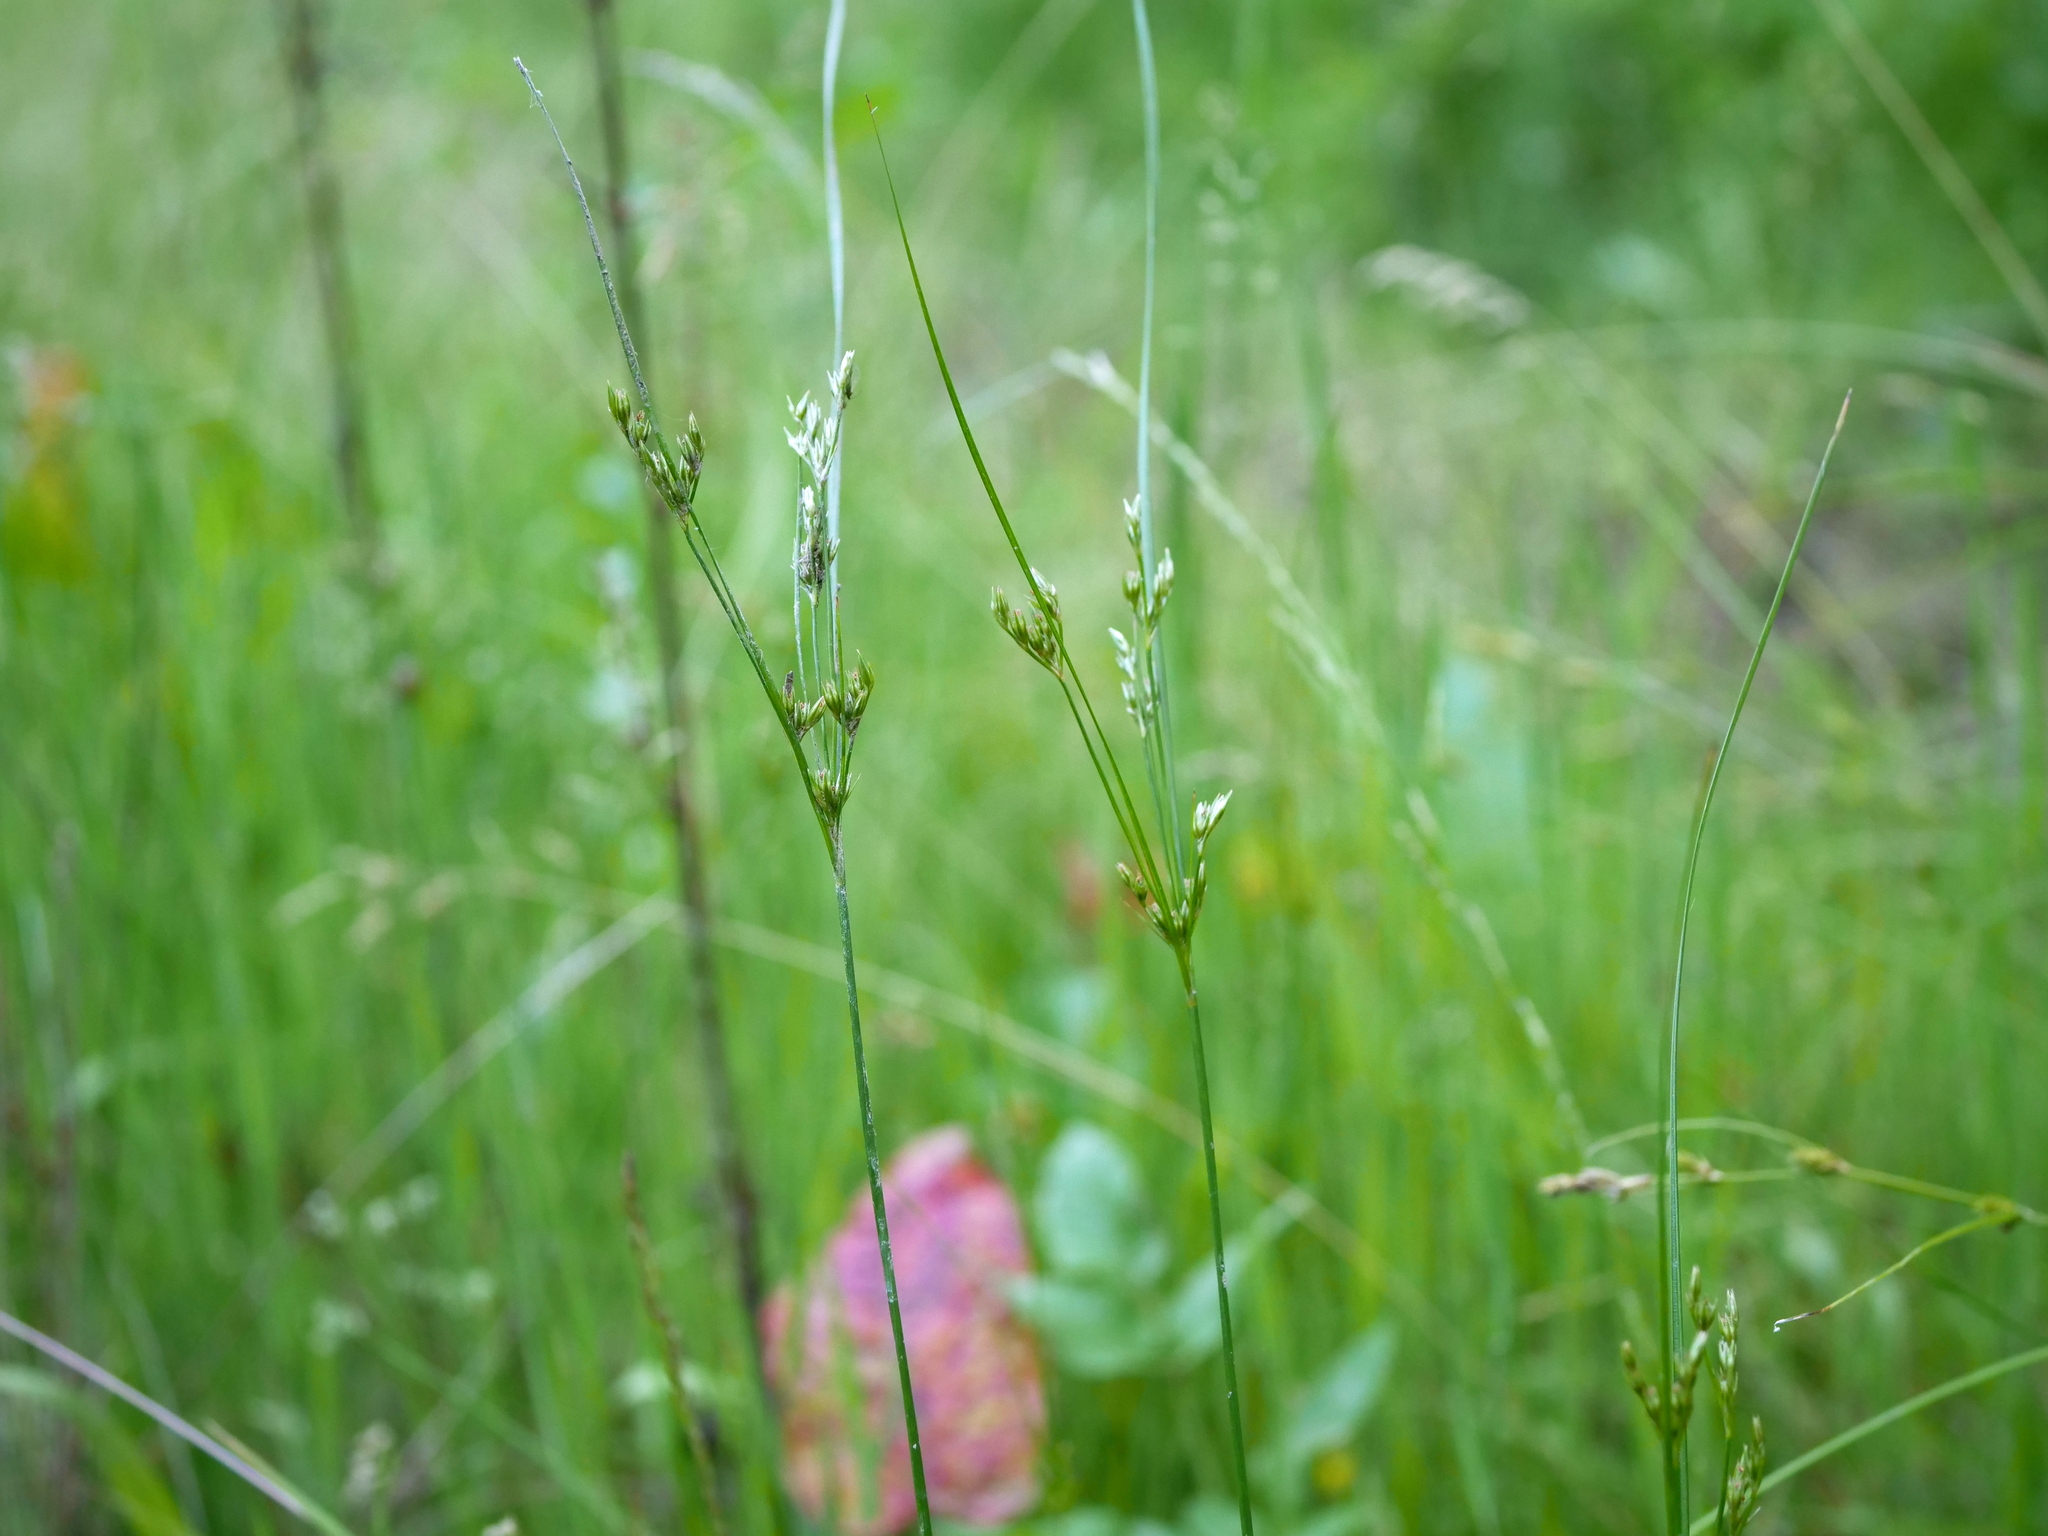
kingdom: Plantae
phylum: Tracheophyta
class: Liliopsida
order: Poales
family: Juncaceae
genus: Juncus
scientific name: Juncus tenuis
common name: Slender rush
